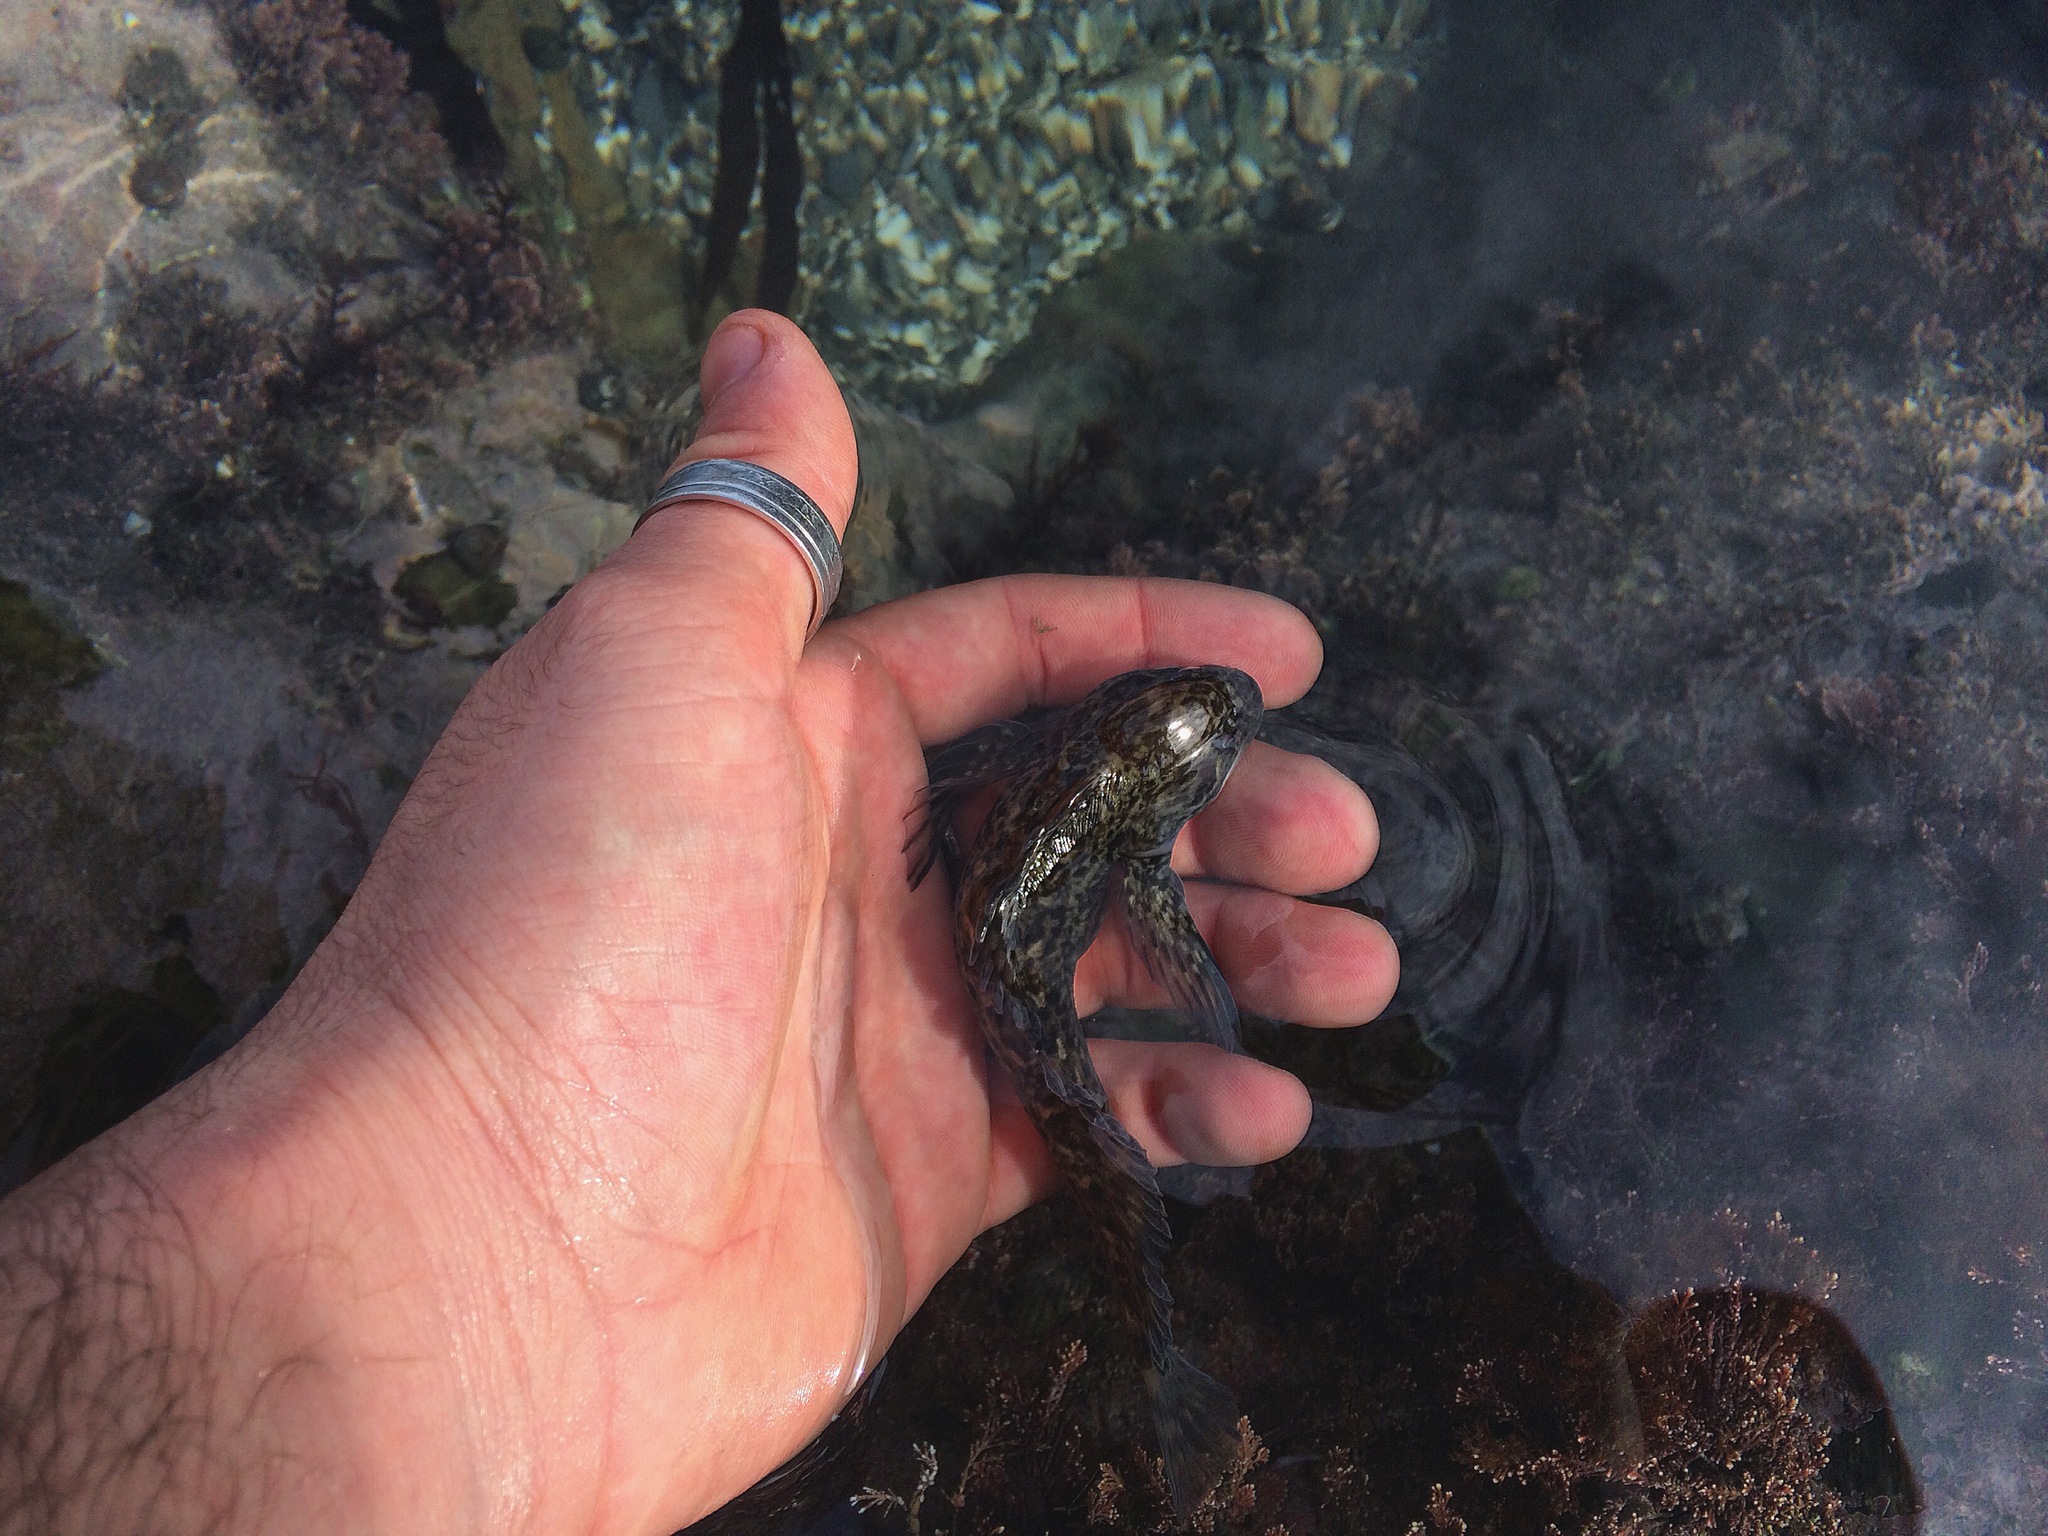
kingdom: Animalia
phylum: Chordata
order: Perciformes
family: Blenniidae
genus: Lipophrys
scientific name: Lipophrys pholis
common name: Shanny
